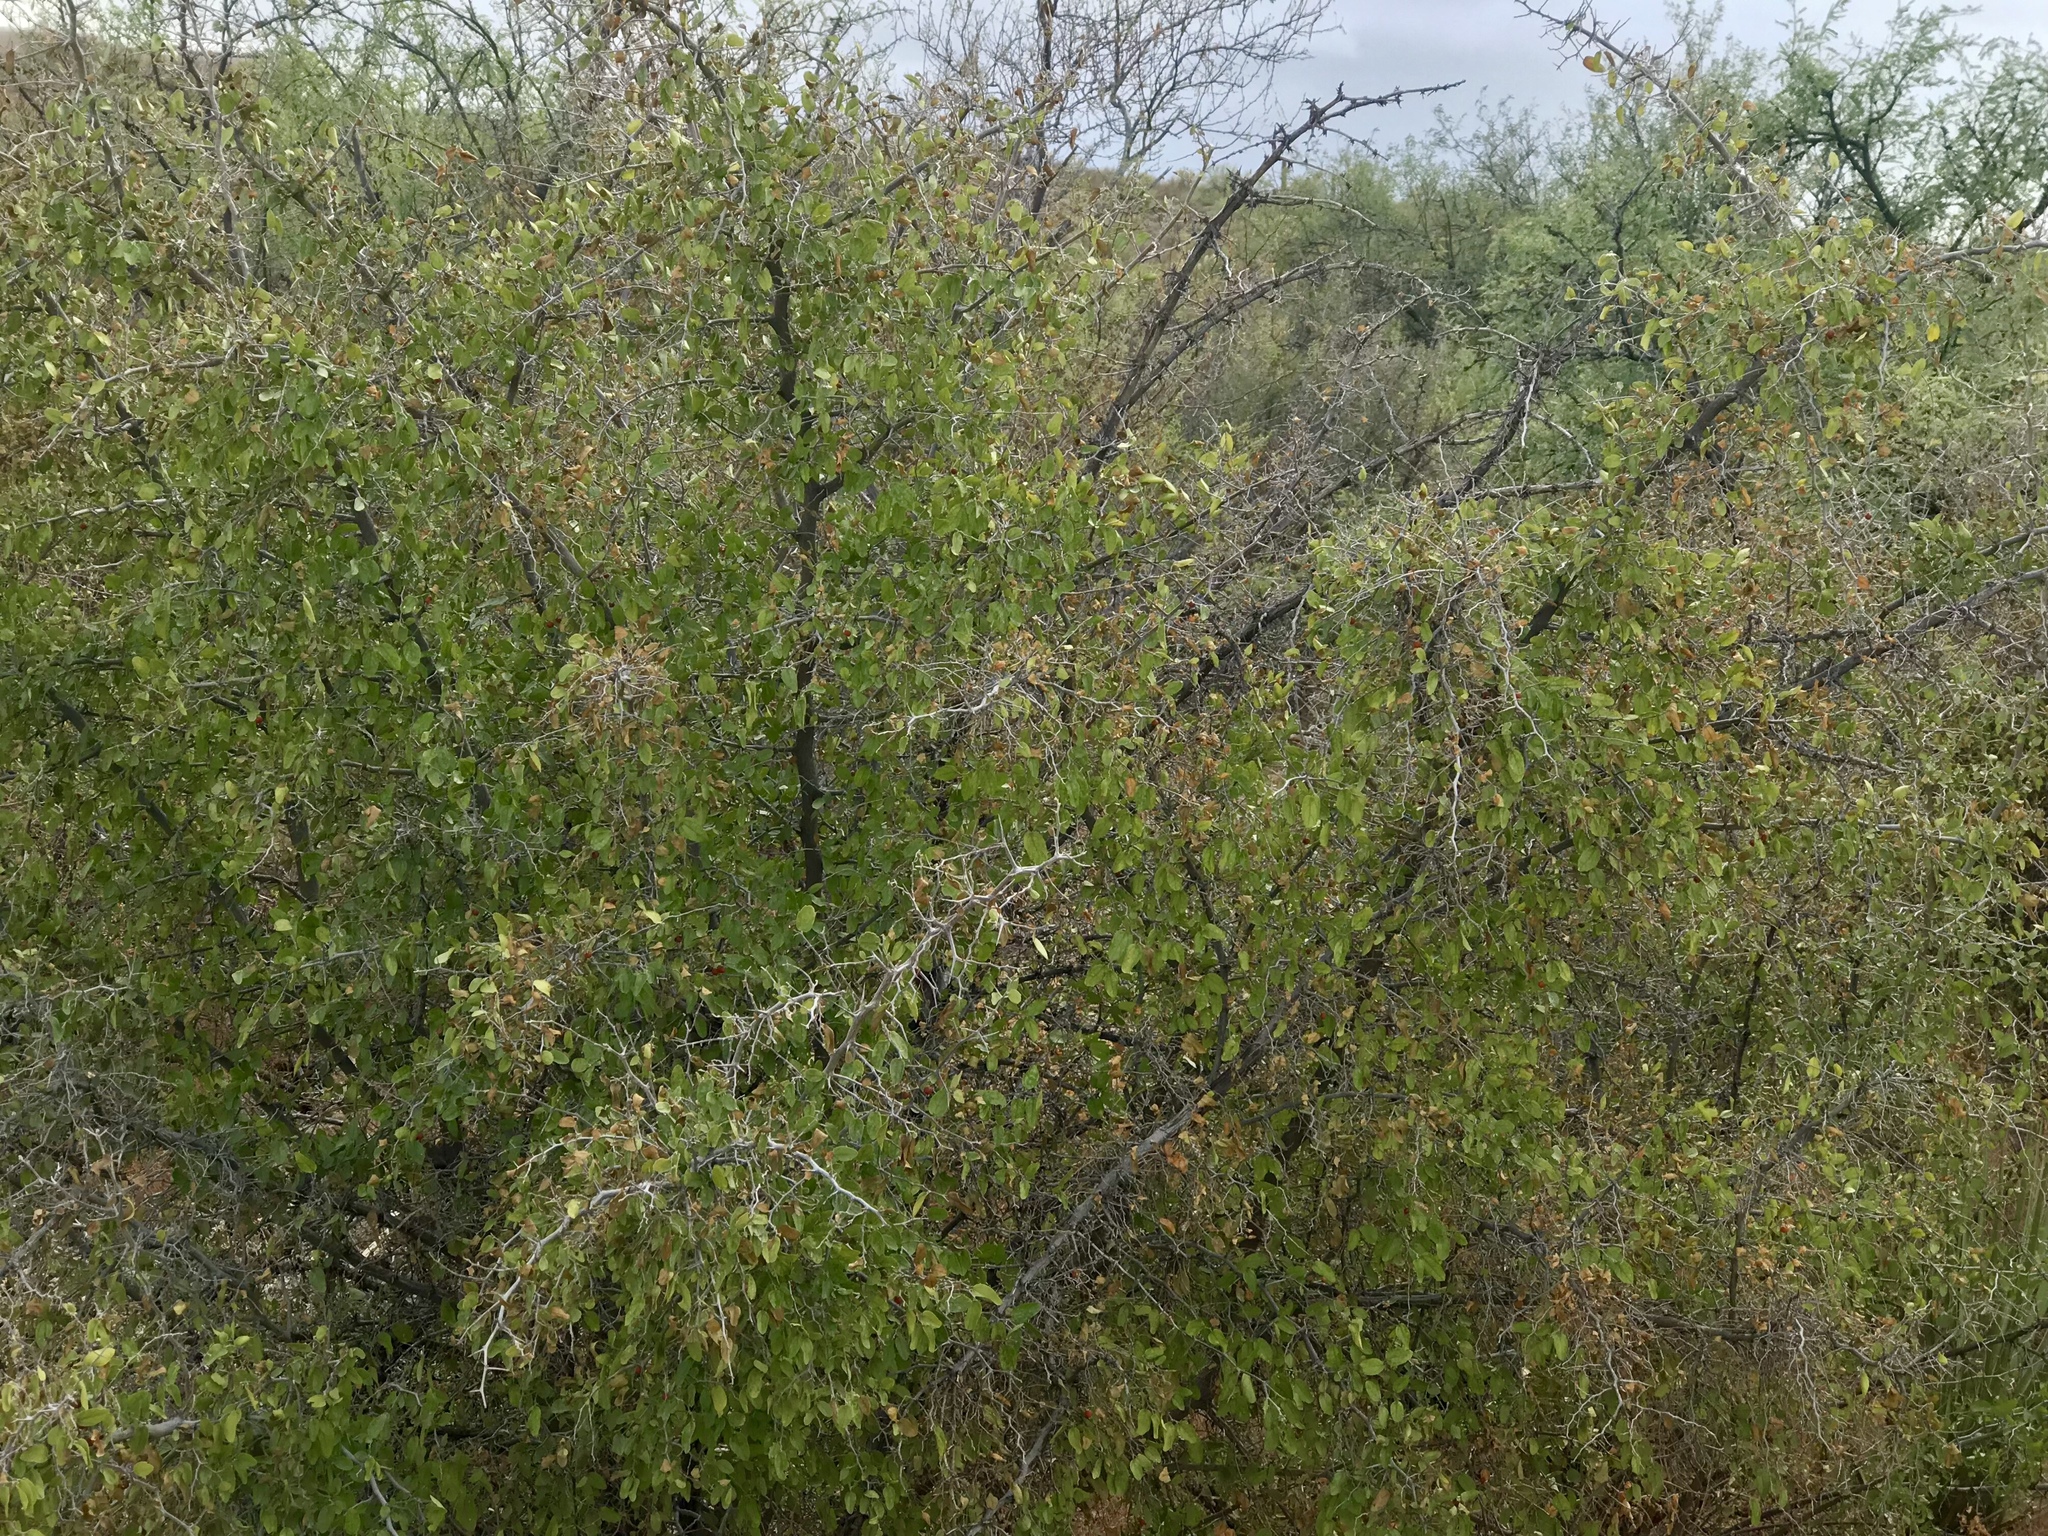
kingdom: Plantae
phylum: Tracheophyta
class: Magnoliopsida
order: Rosales
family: Cannabaceae
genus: Celtis
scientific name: Celtis pallida
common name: Desert hackberry
